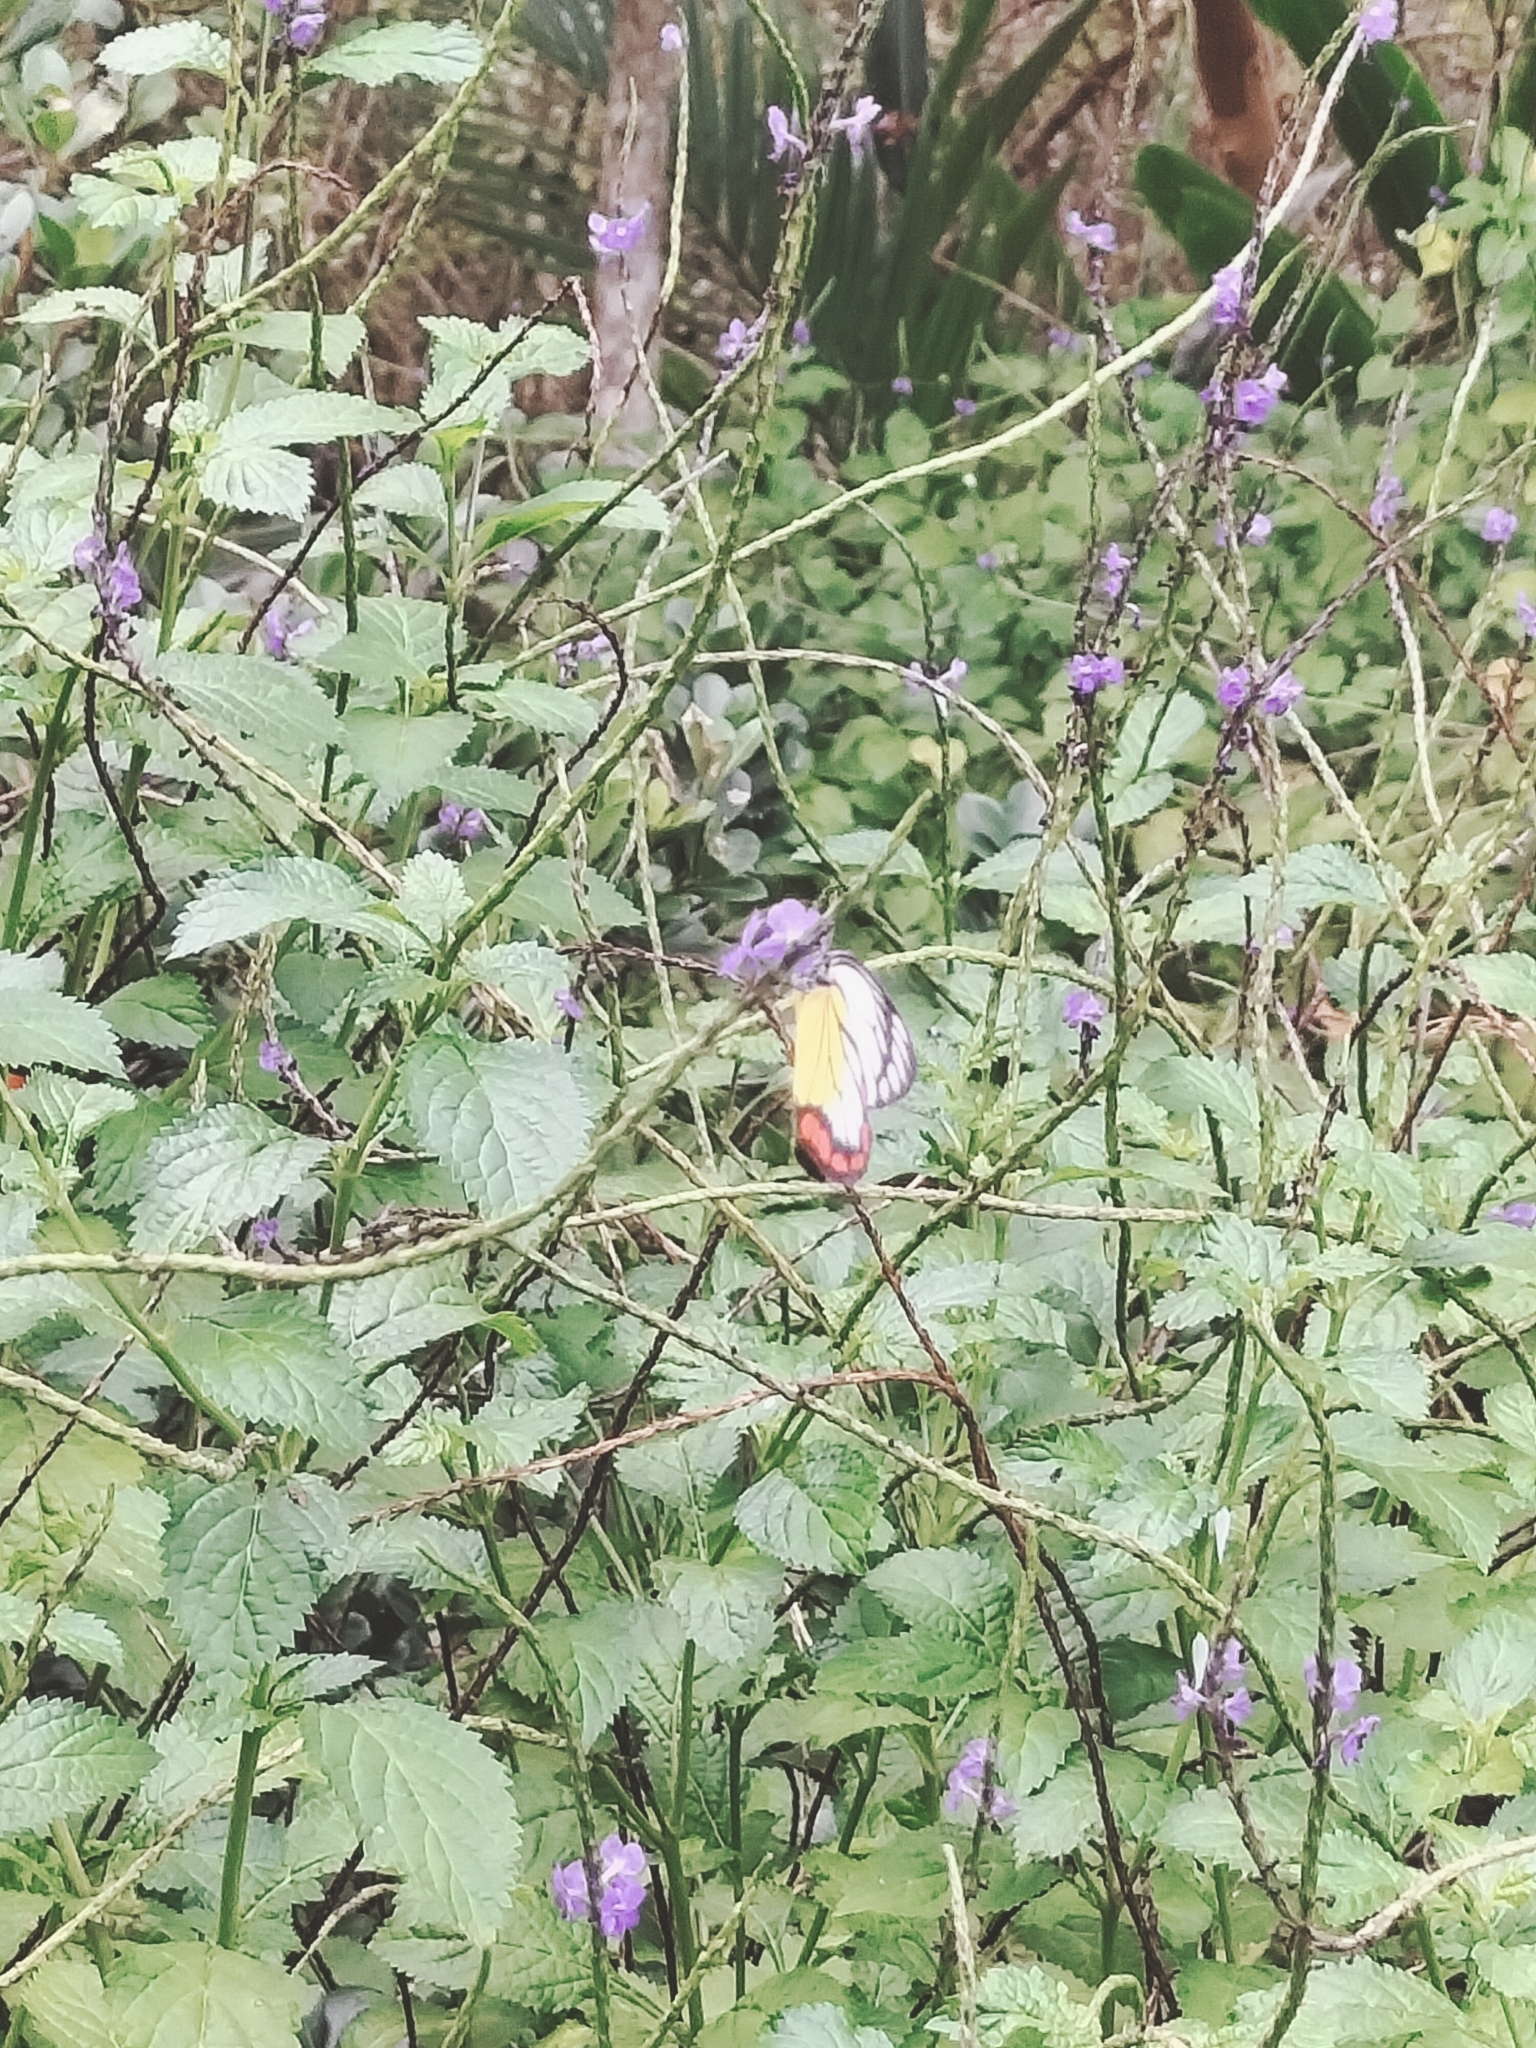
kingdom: Animalia
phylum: Arthropoda
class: Insecta
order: Lepidoptera
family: Pieridae
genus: Delias
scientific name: Delias hyparete
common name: Painted jezebel
